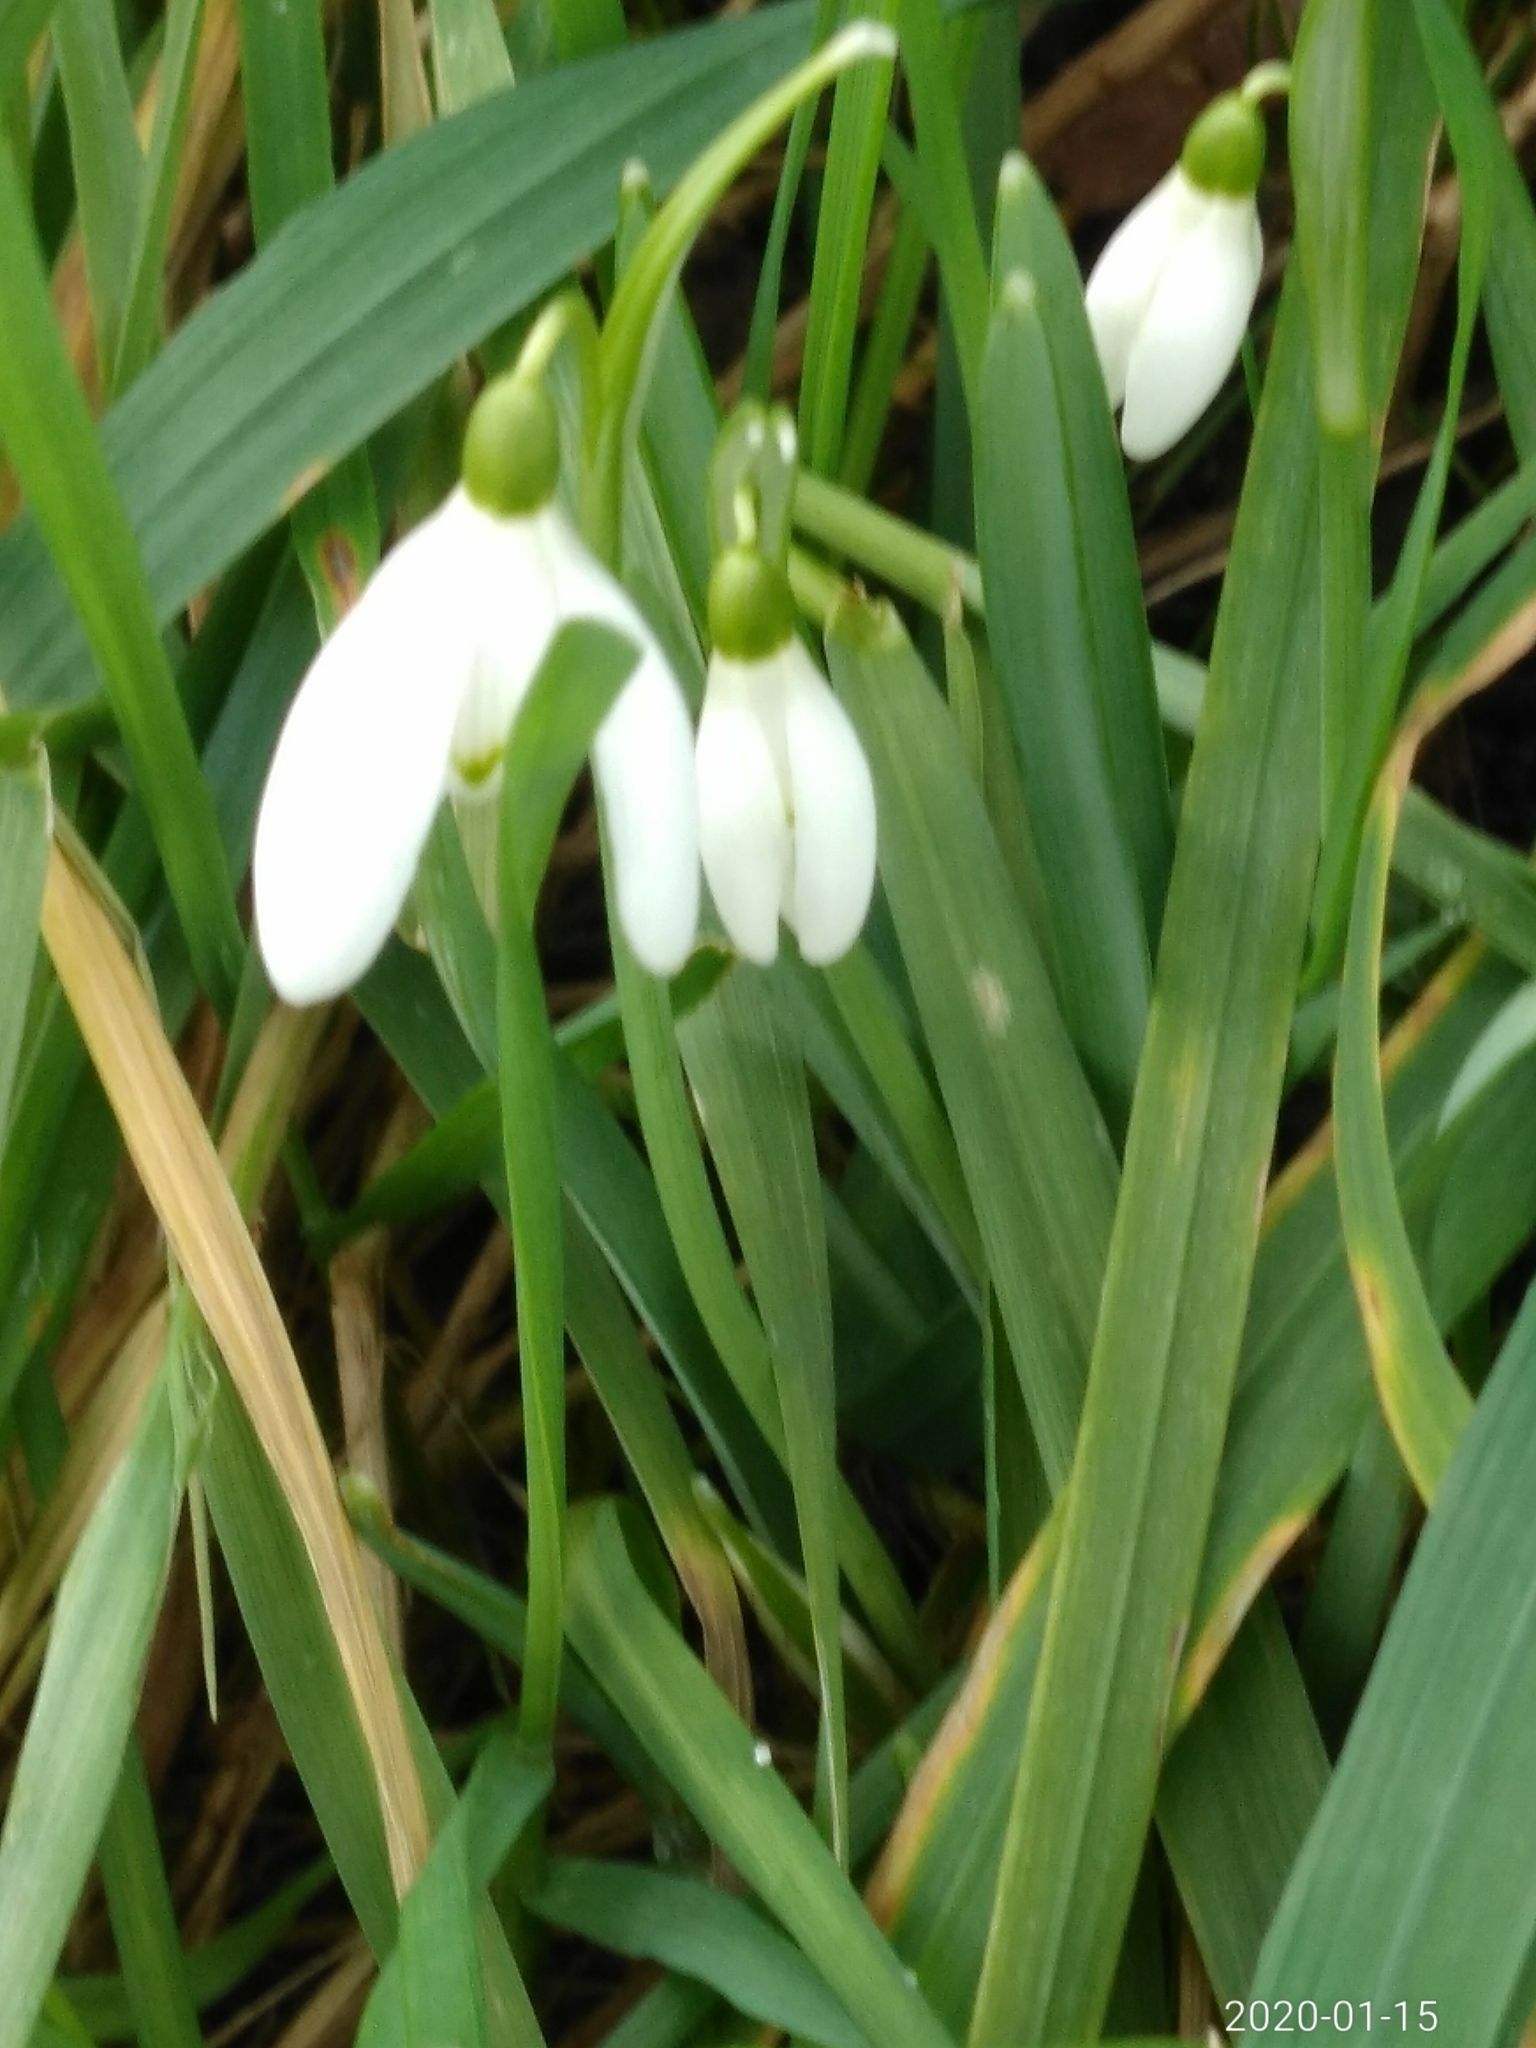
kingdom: Plantae
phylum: Tracheophyta
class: Liliopsida
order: Asparagales
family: Amaryllidaceae
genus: Galanthus
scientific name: Galanthus nivalis
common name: Snowdrop
